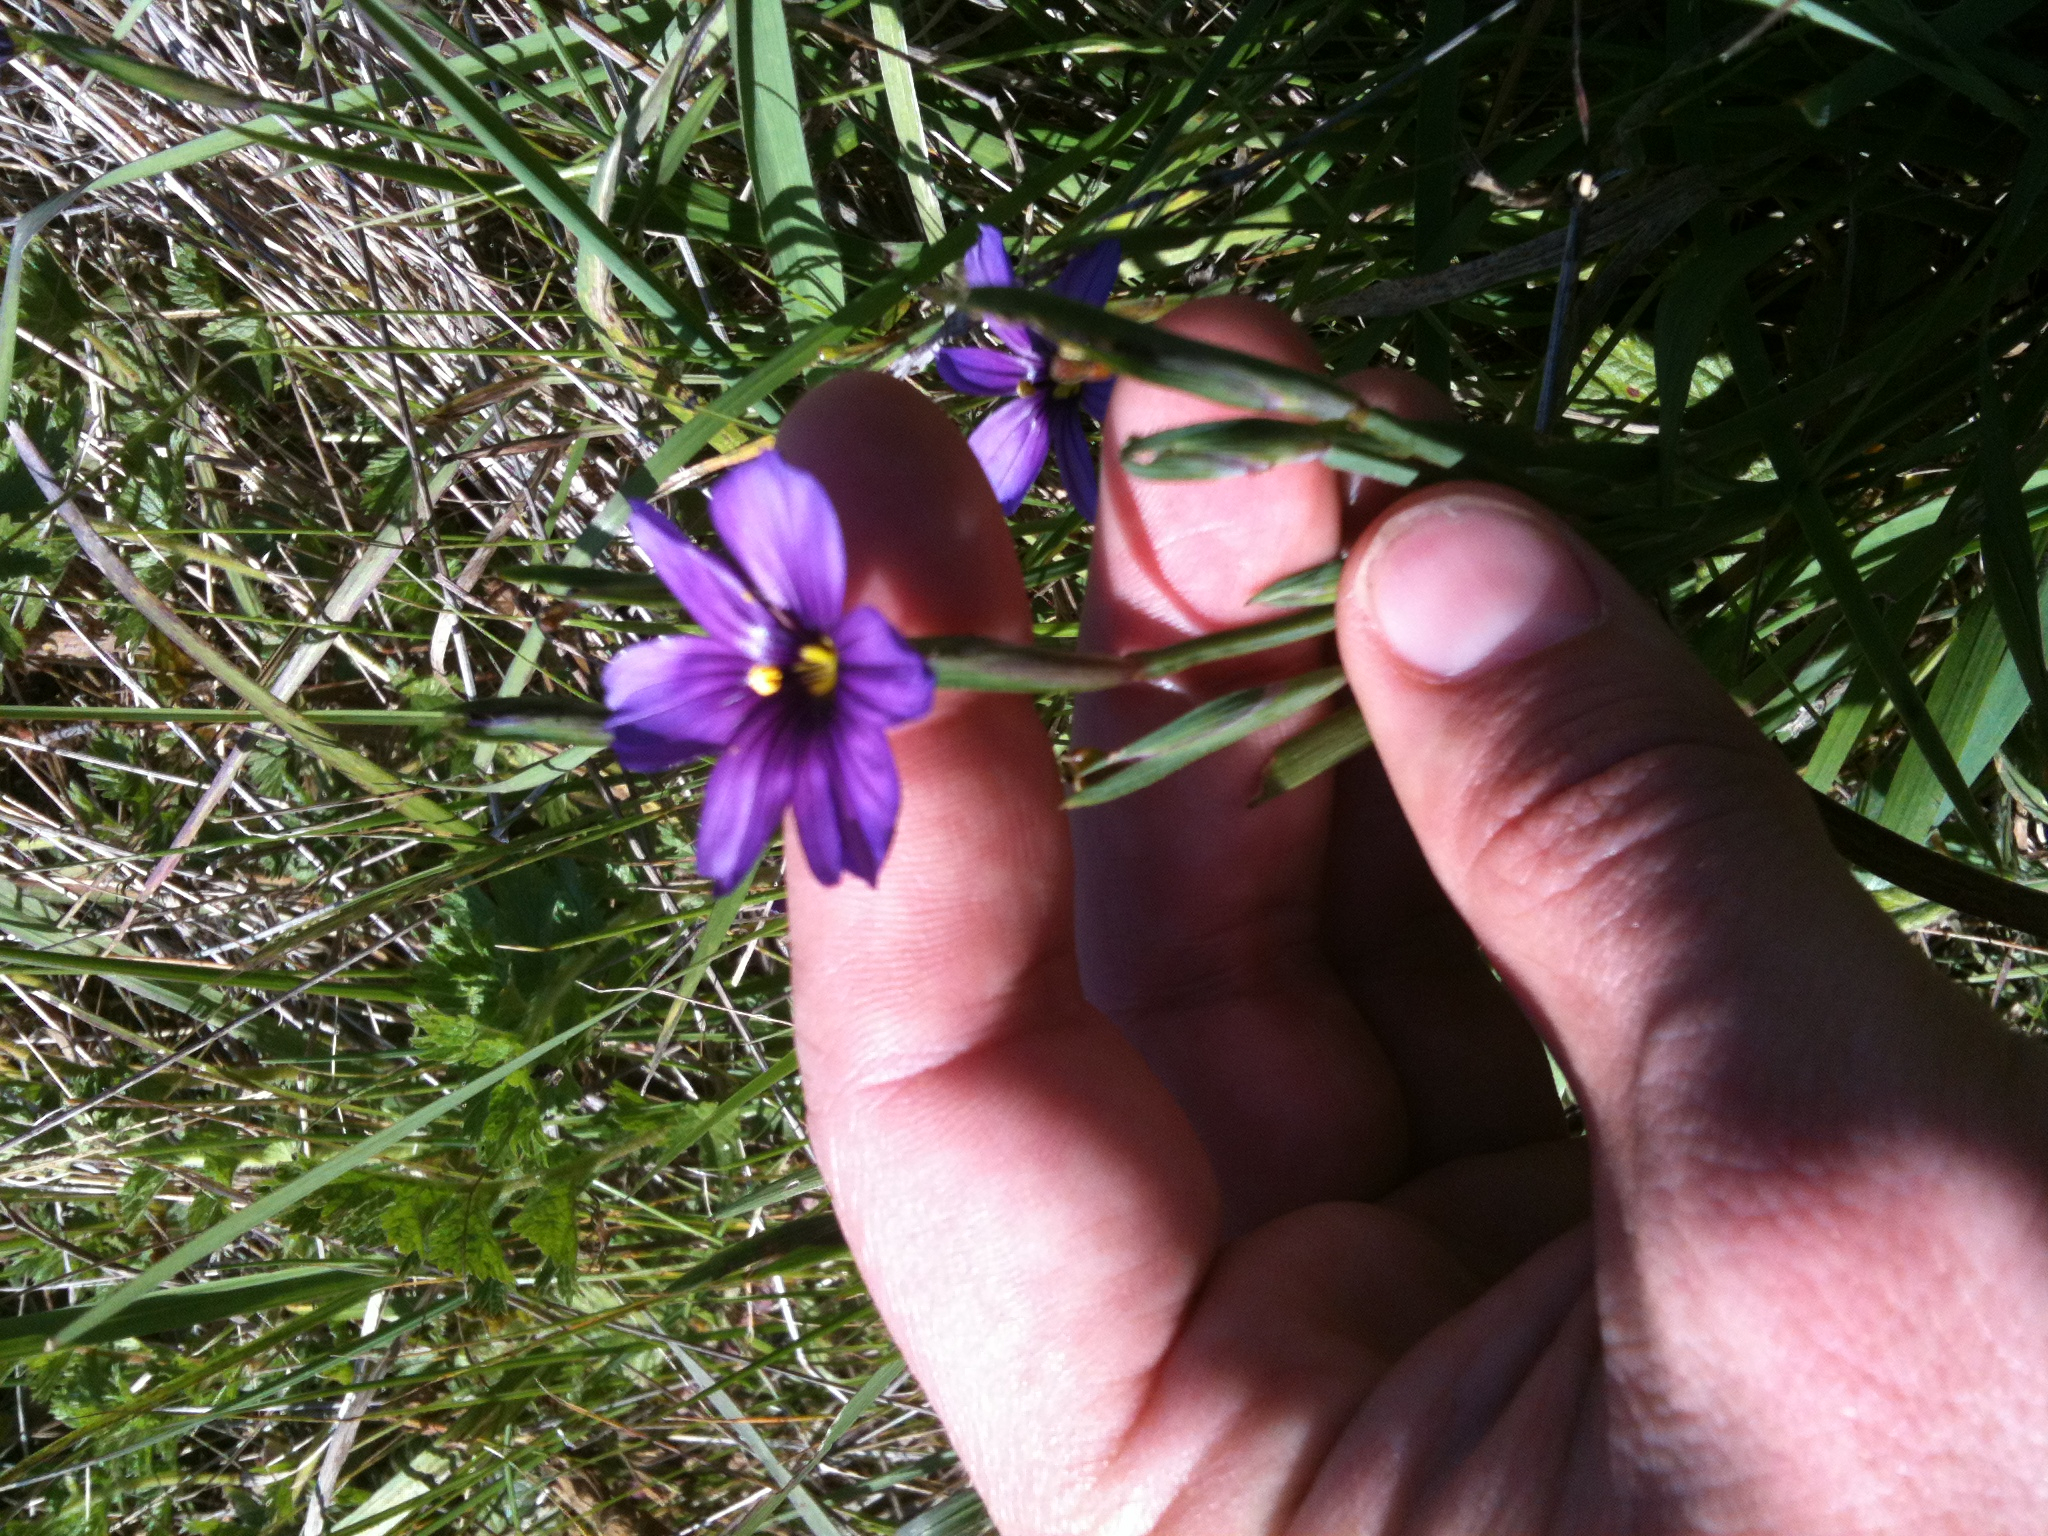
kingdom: Plantae
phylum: Tracheophyta
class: Liliopsida
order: Asparagales
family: Iridaceae
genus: Sisyrinchium
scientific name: Sisyrinchium bellum
